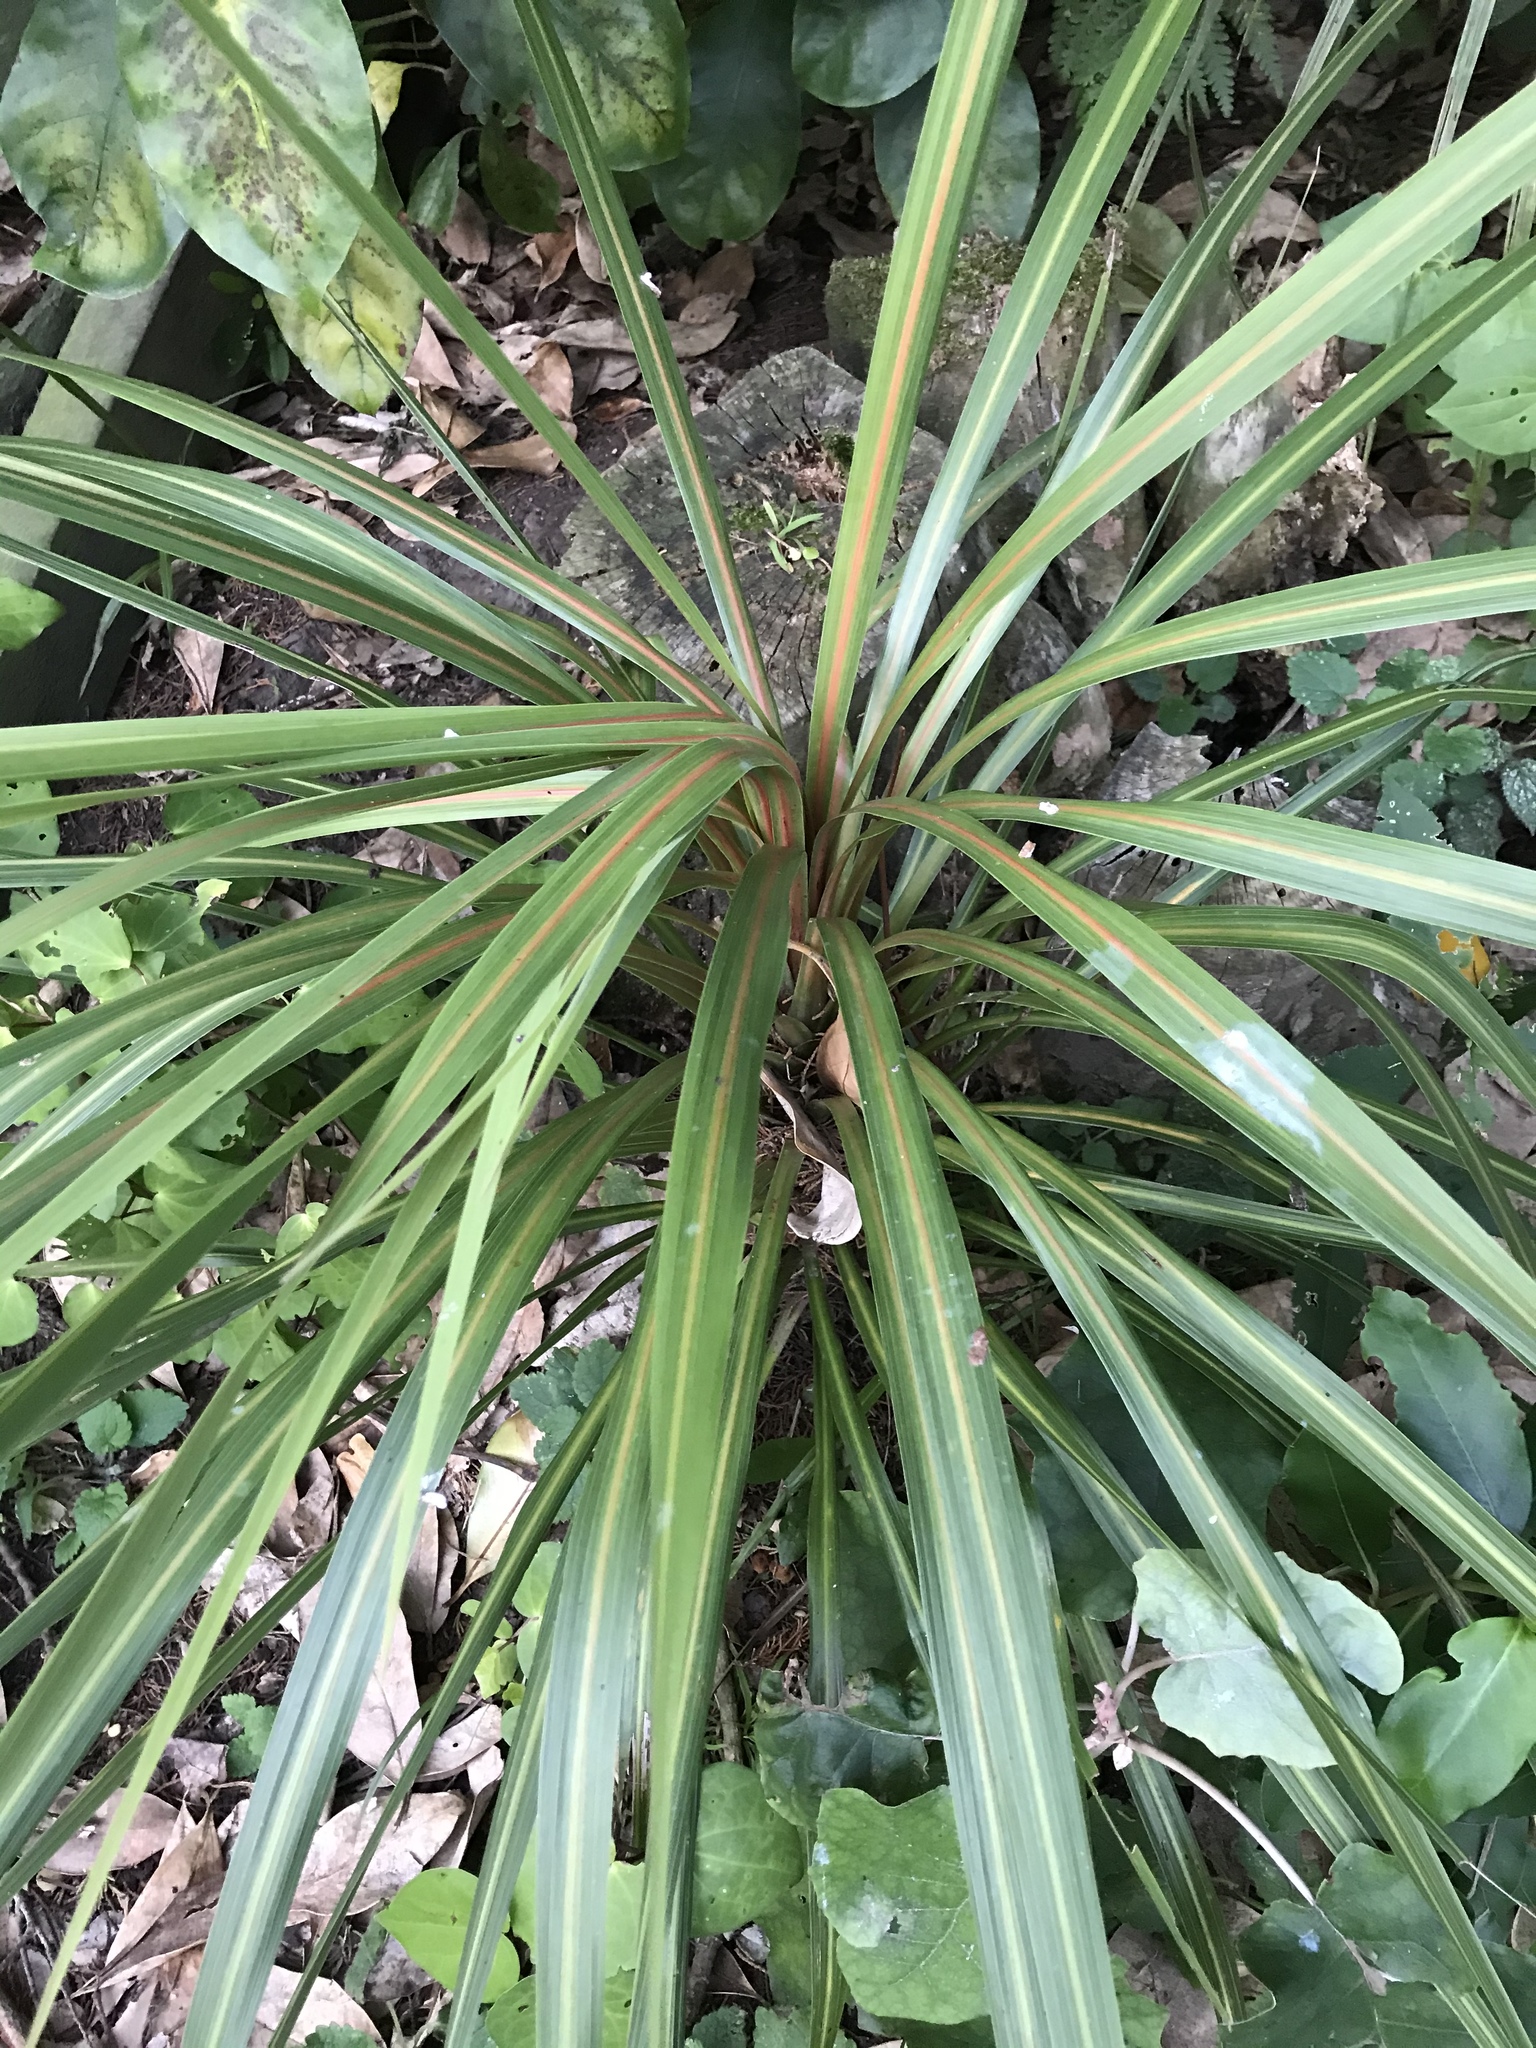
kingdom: Plantae
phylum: Tracheophyta
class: Liliopsida
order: Asparagales
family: Asparagaceae
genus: Cordyline
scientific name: Cordyline australis
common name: Cabbage-palm
